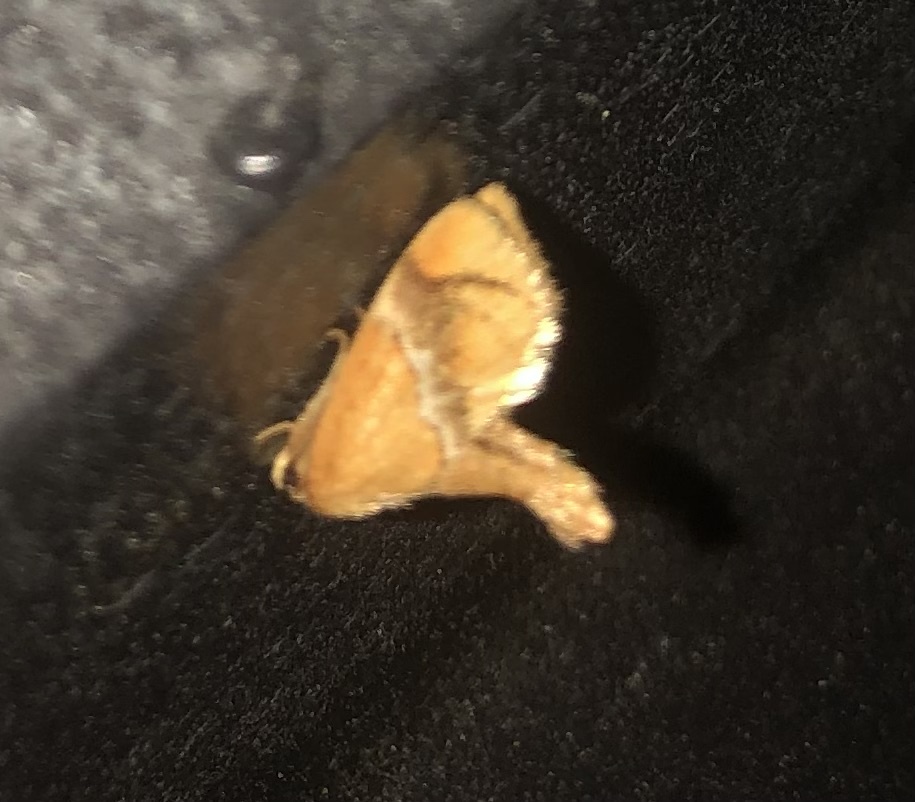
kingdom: Animalia
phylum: Arthropoda
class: Insecta
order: Lepidoptera
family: Limacodidae
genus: Lithacodes
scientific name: Lithacodes fasciola
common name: Yellow-shouldered slug moth
